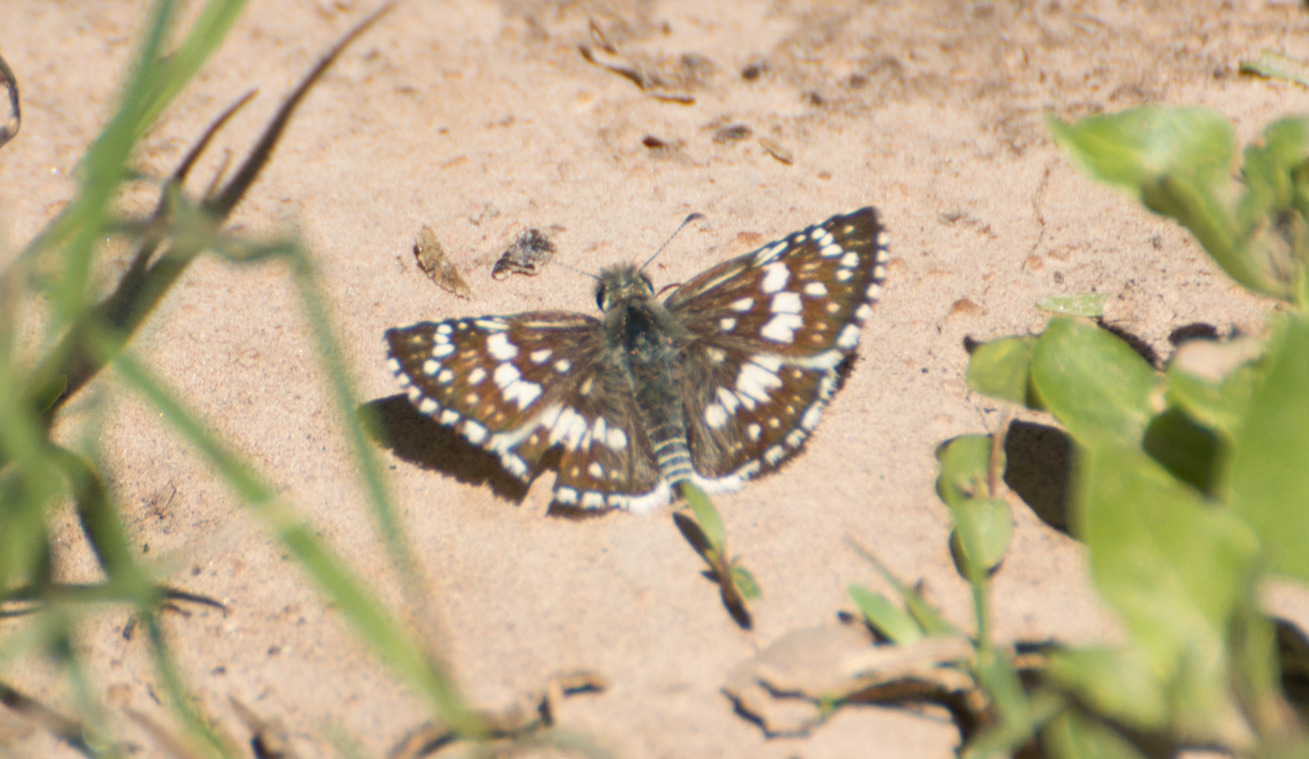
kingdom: Animalia
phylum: Arthropoda
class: Insecta
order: Lepidoptera
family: Hesperiidae
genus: Burnsius
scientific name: Burnsius orcynoides
